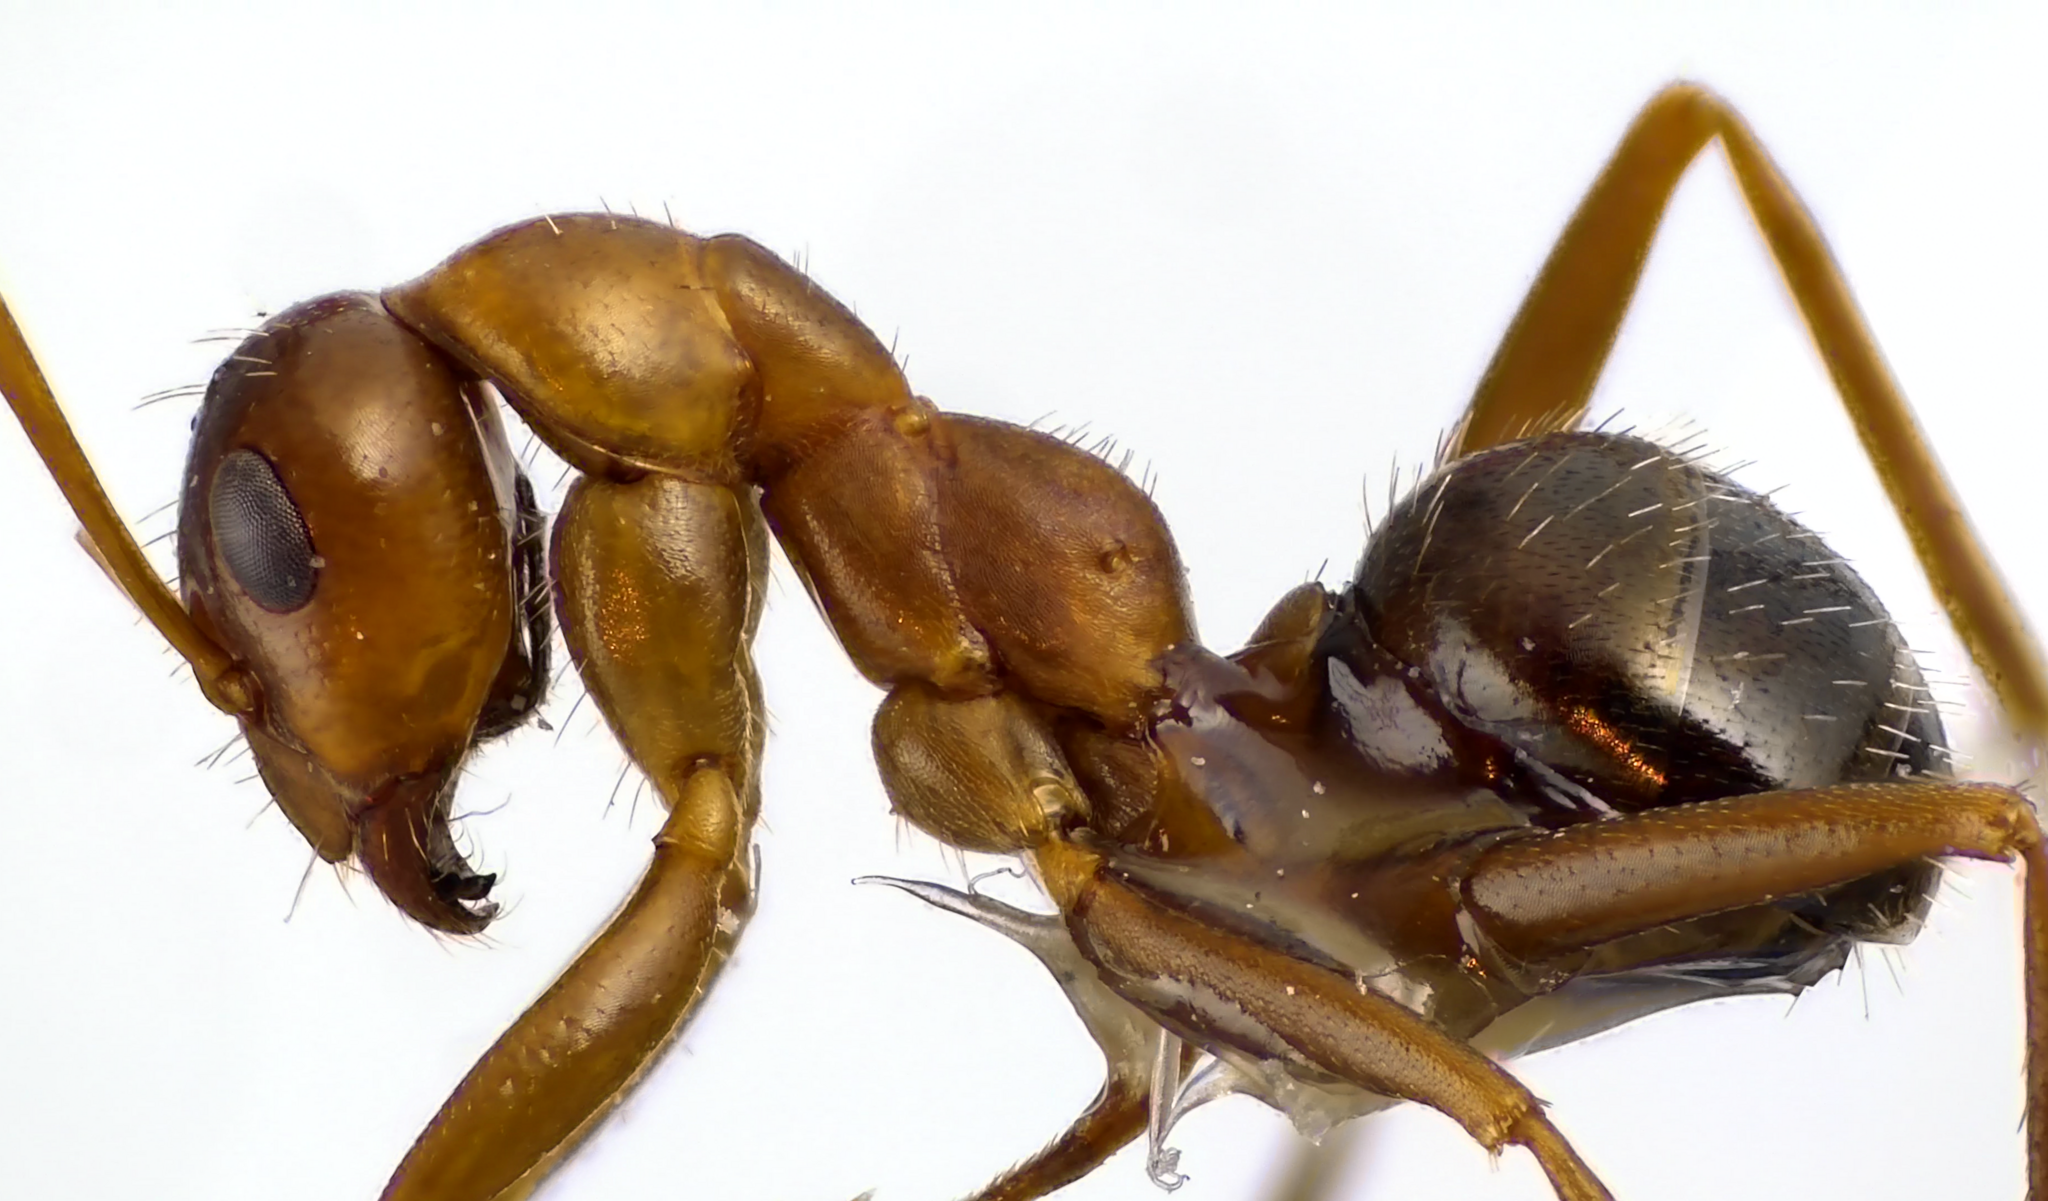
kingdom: Animalia
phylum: Arthropoda
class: Insecta
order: Hymenoptera
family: Formicidae
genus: Formica
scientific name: Formica incerta
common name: Uncertain field ant
